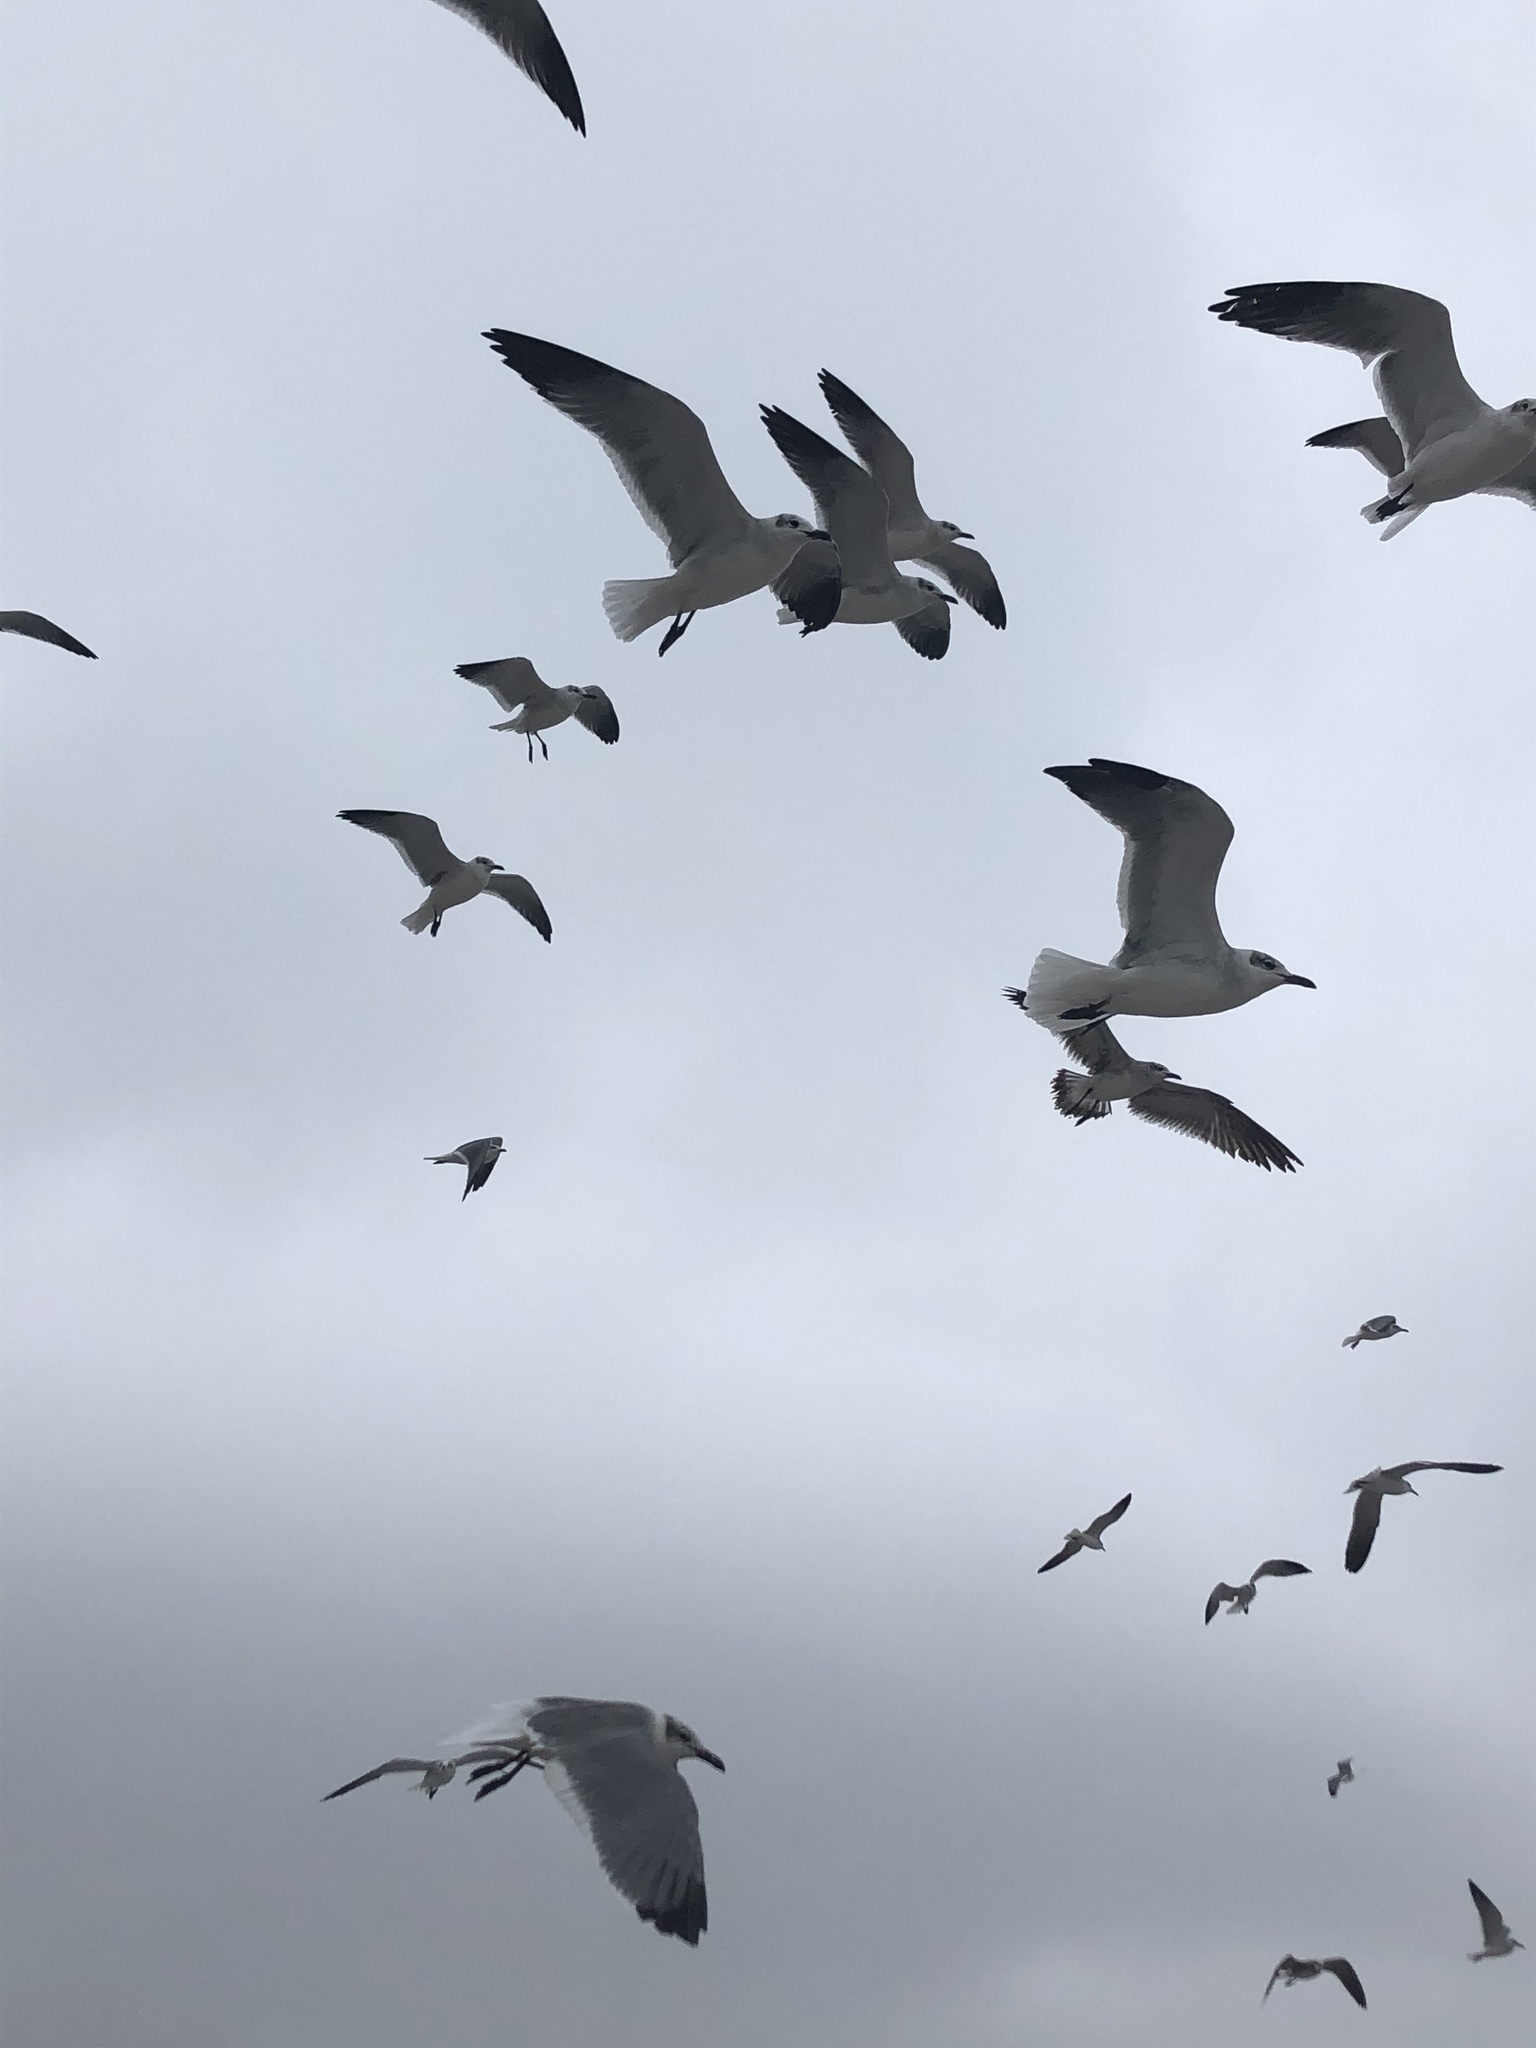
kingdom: Animalia
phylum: Chordata
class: Aves
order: Charadriiformes
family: Laridae
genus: Leucophaeus
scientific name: Leucophaeus atricilla
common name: Laughing gull
